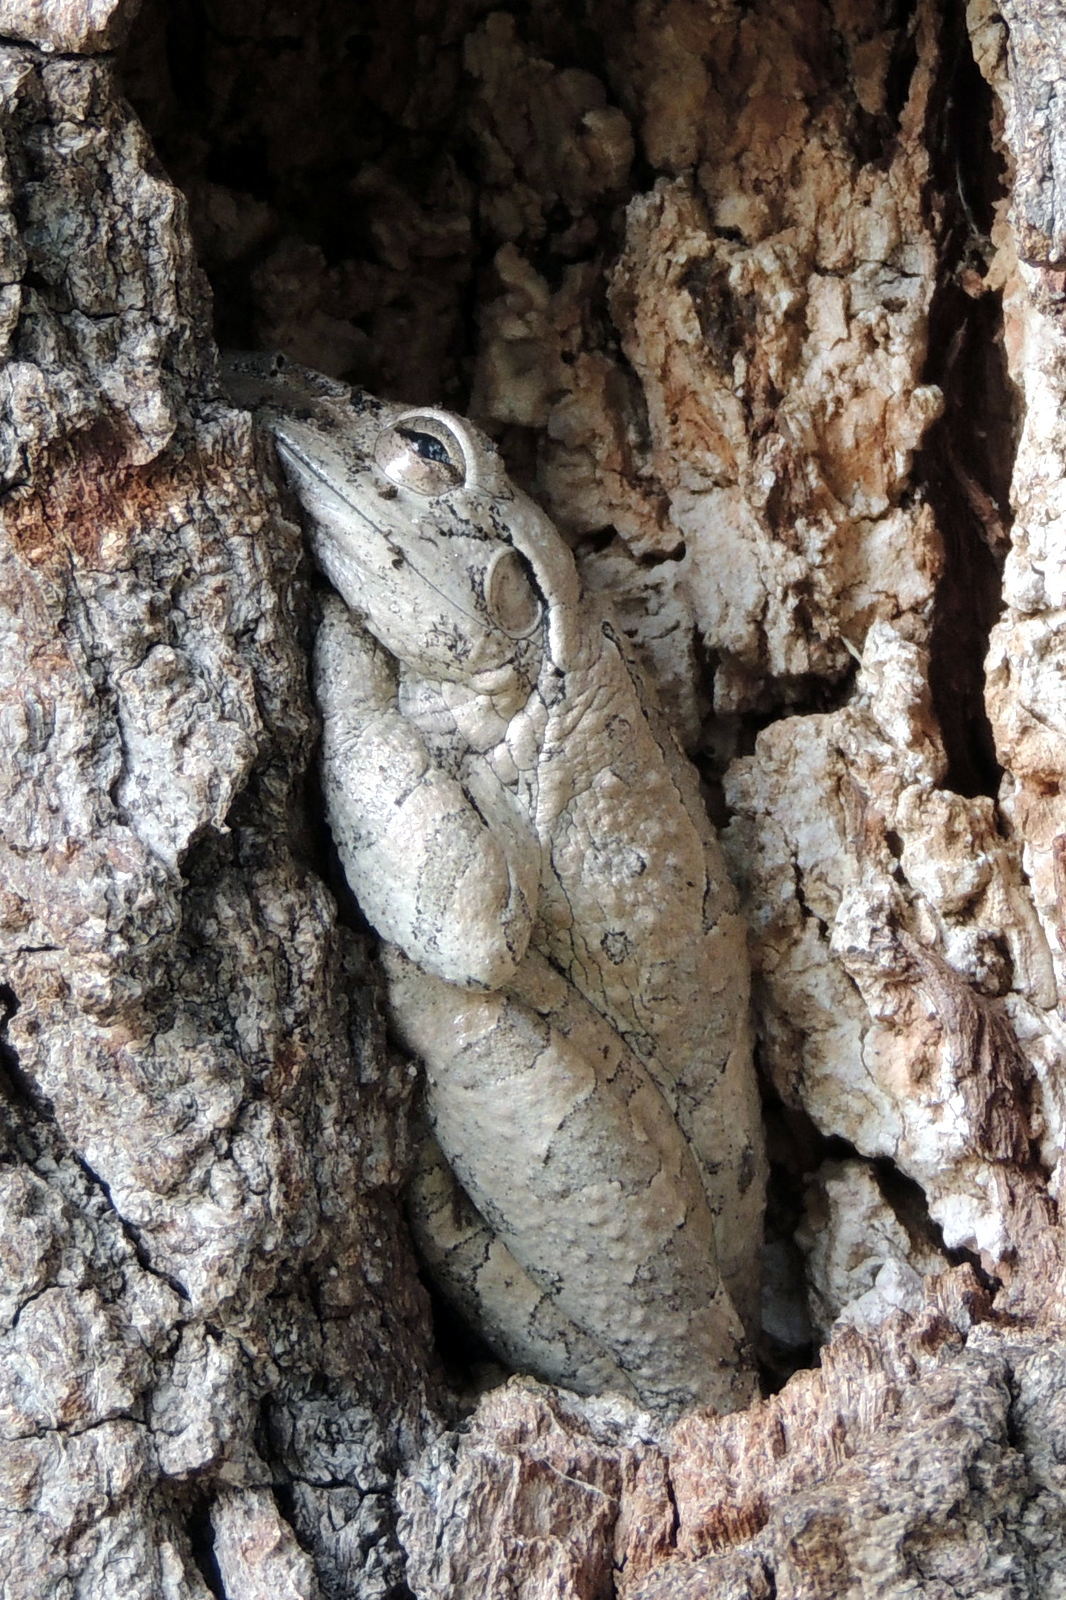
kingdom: Animalia
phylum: Chordata
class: Amphibia
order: Anura
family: Hylidae
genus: Osteopilus
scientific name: Osteopilus septentrionalis
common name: Cuban treefrog
